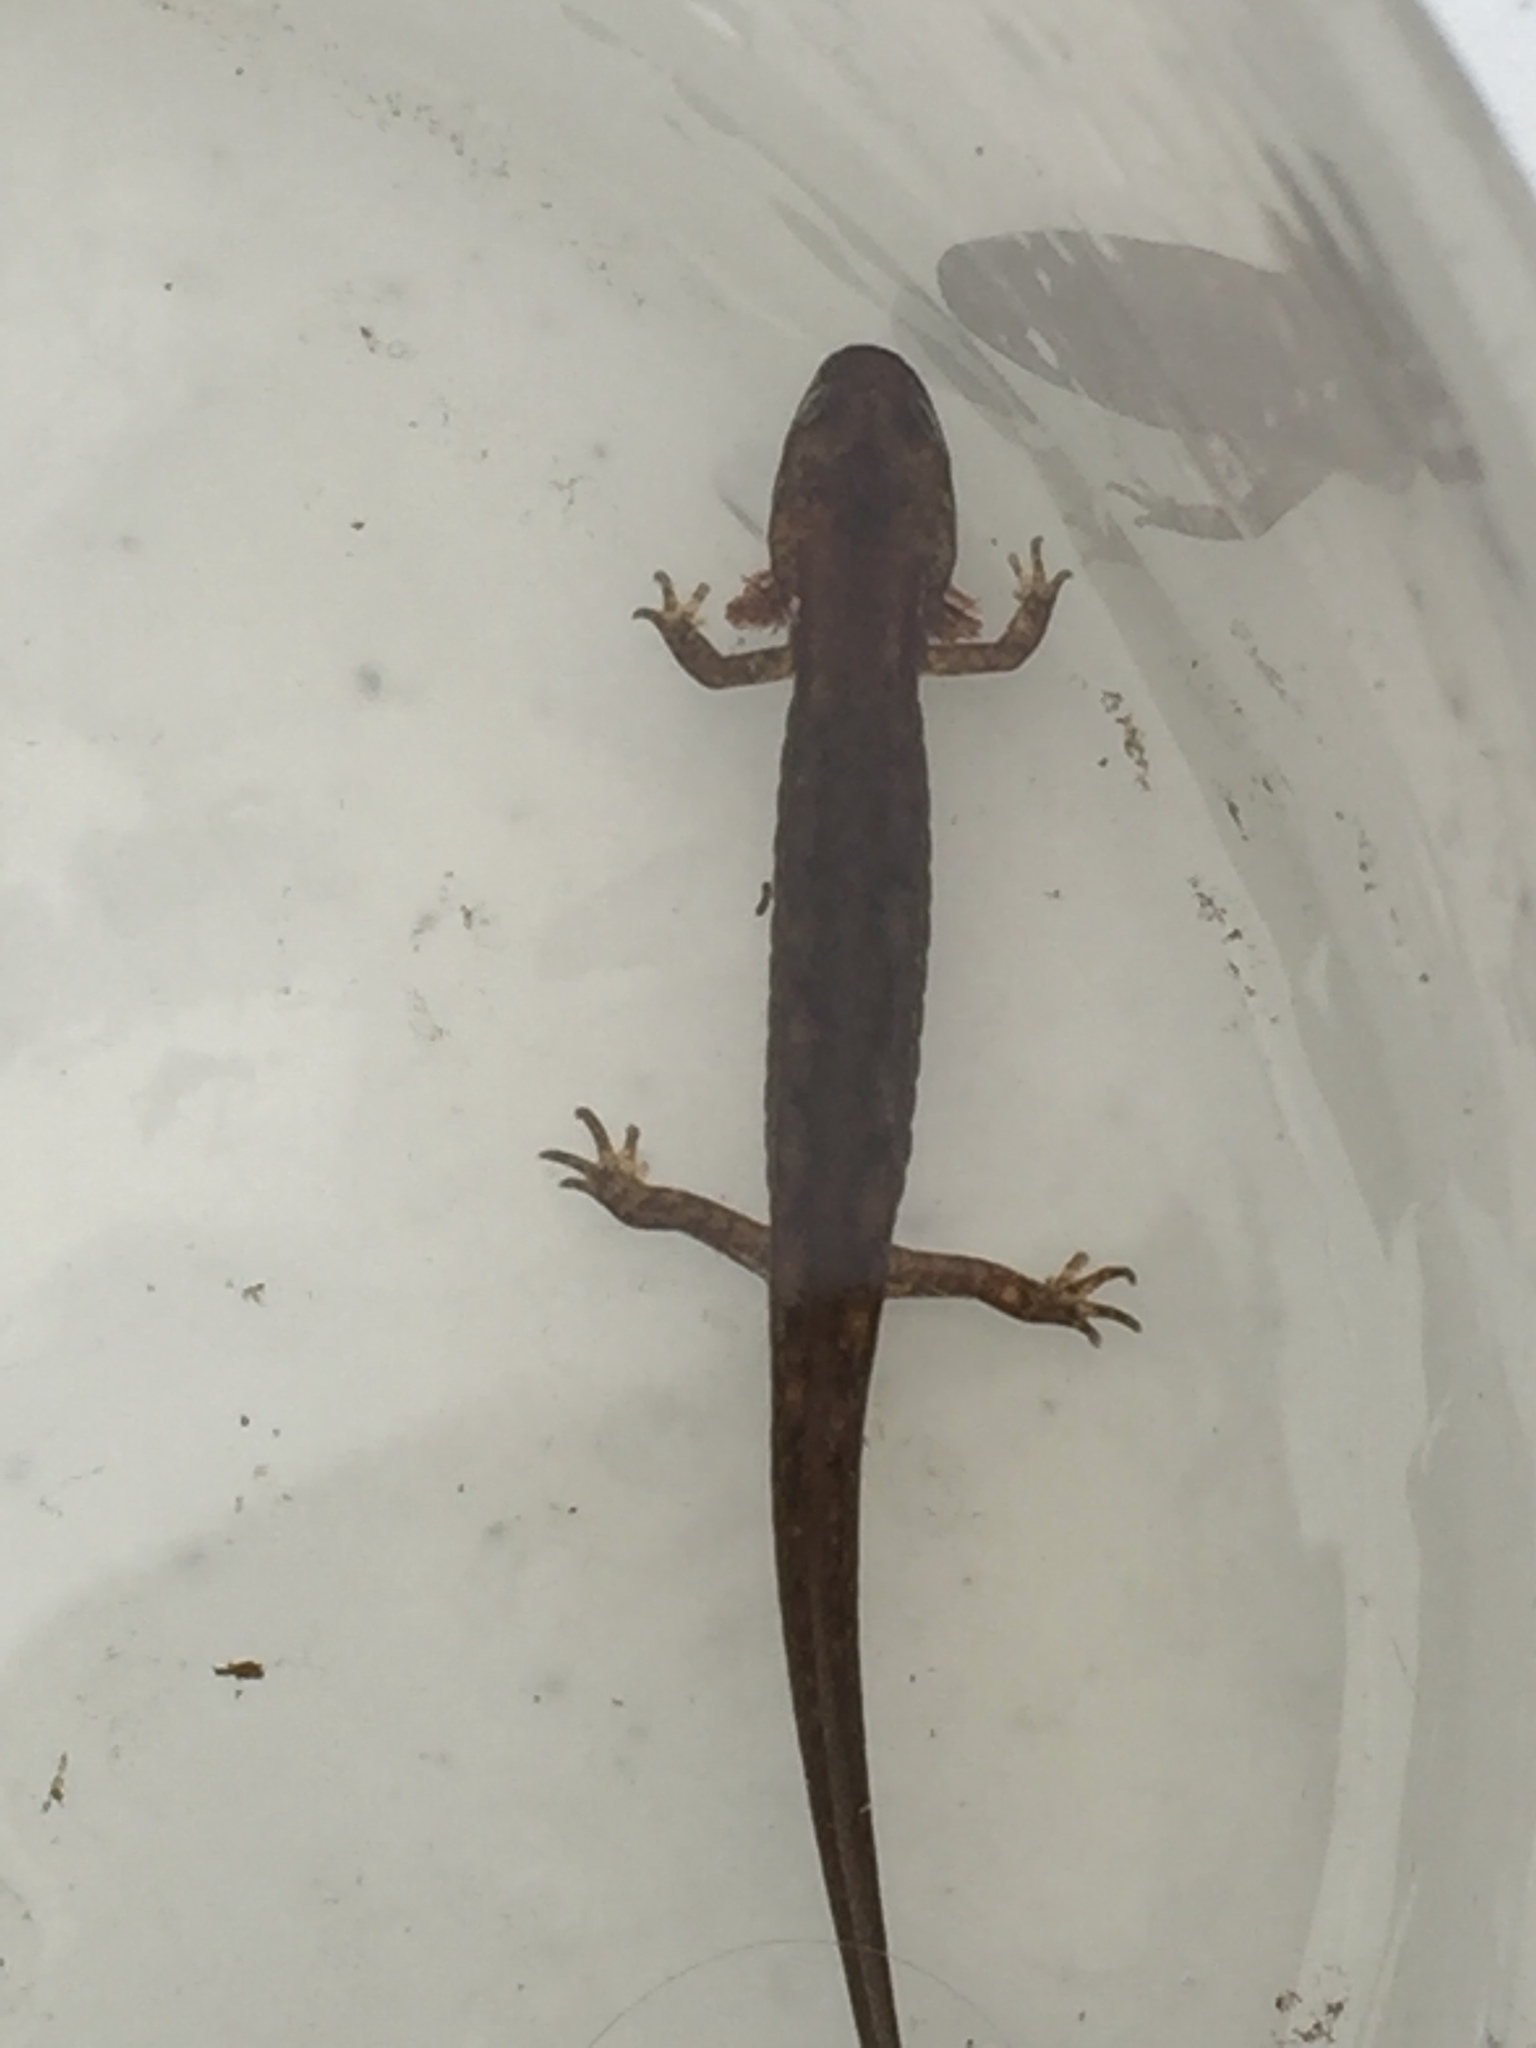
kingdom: Animalia
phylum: Chordata
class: Amphibia
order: Caudata
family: Plethodontidae
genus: Eurycea
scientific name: Eurycea bislineata
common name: Northern two-lined salamander
